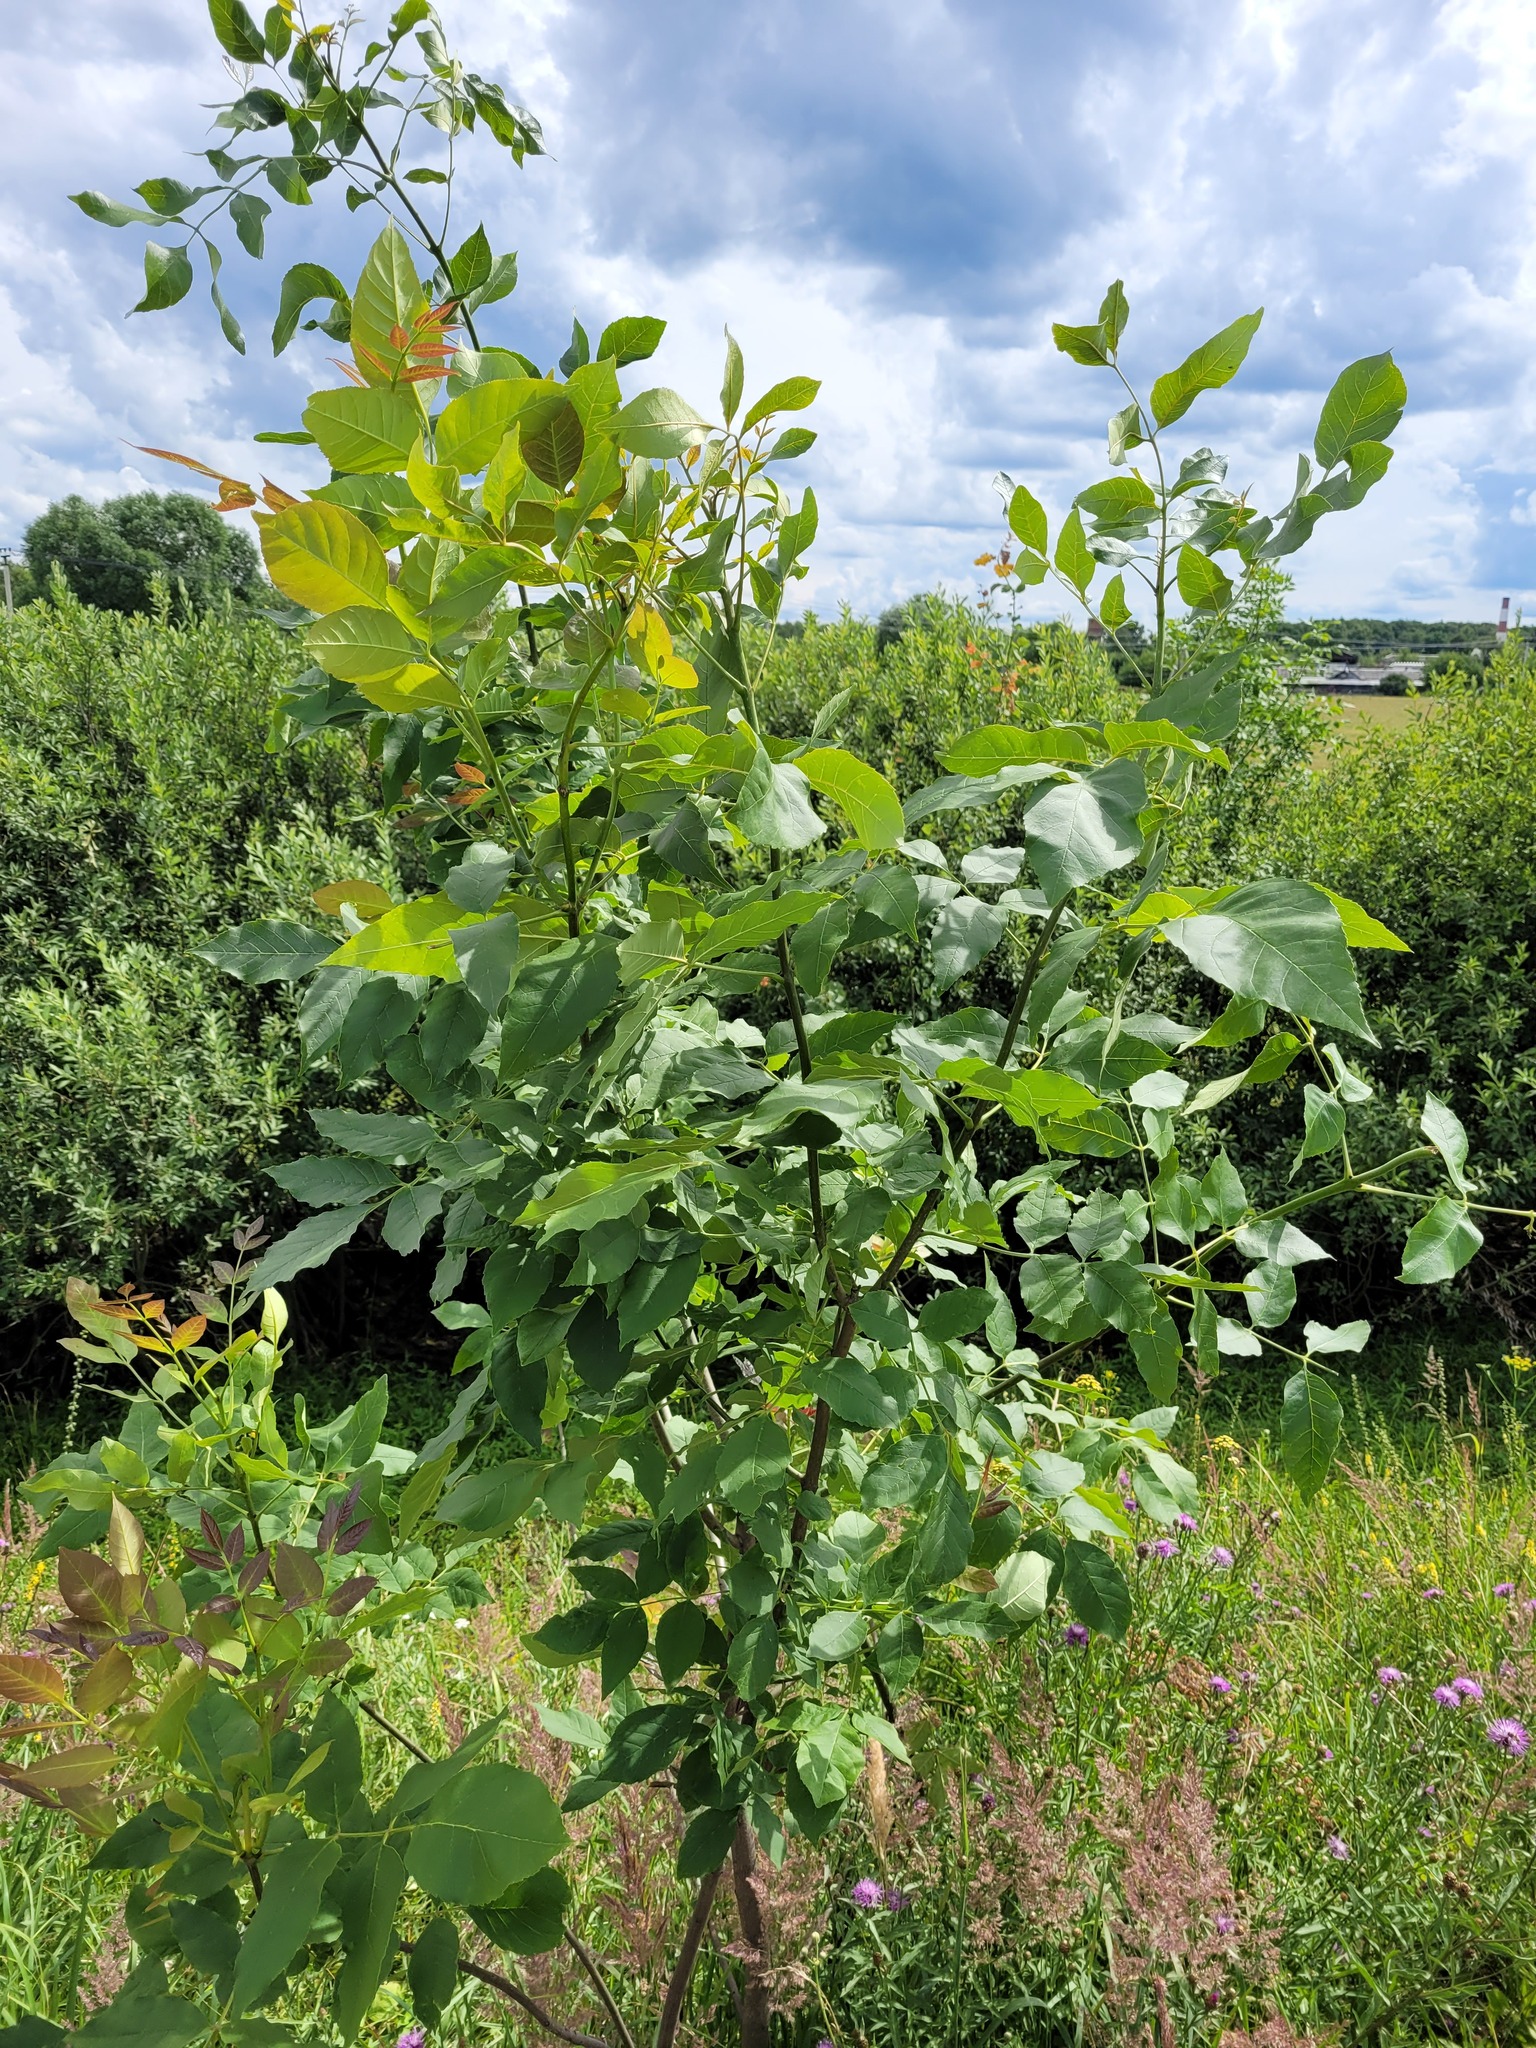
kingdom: Plantae
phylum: Tracheophyta
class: Magnoliopsida
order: Lamiales
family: Oleaceae
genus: Fraxinus
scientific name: Fraxinus pennsylvanica
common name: Green ash
